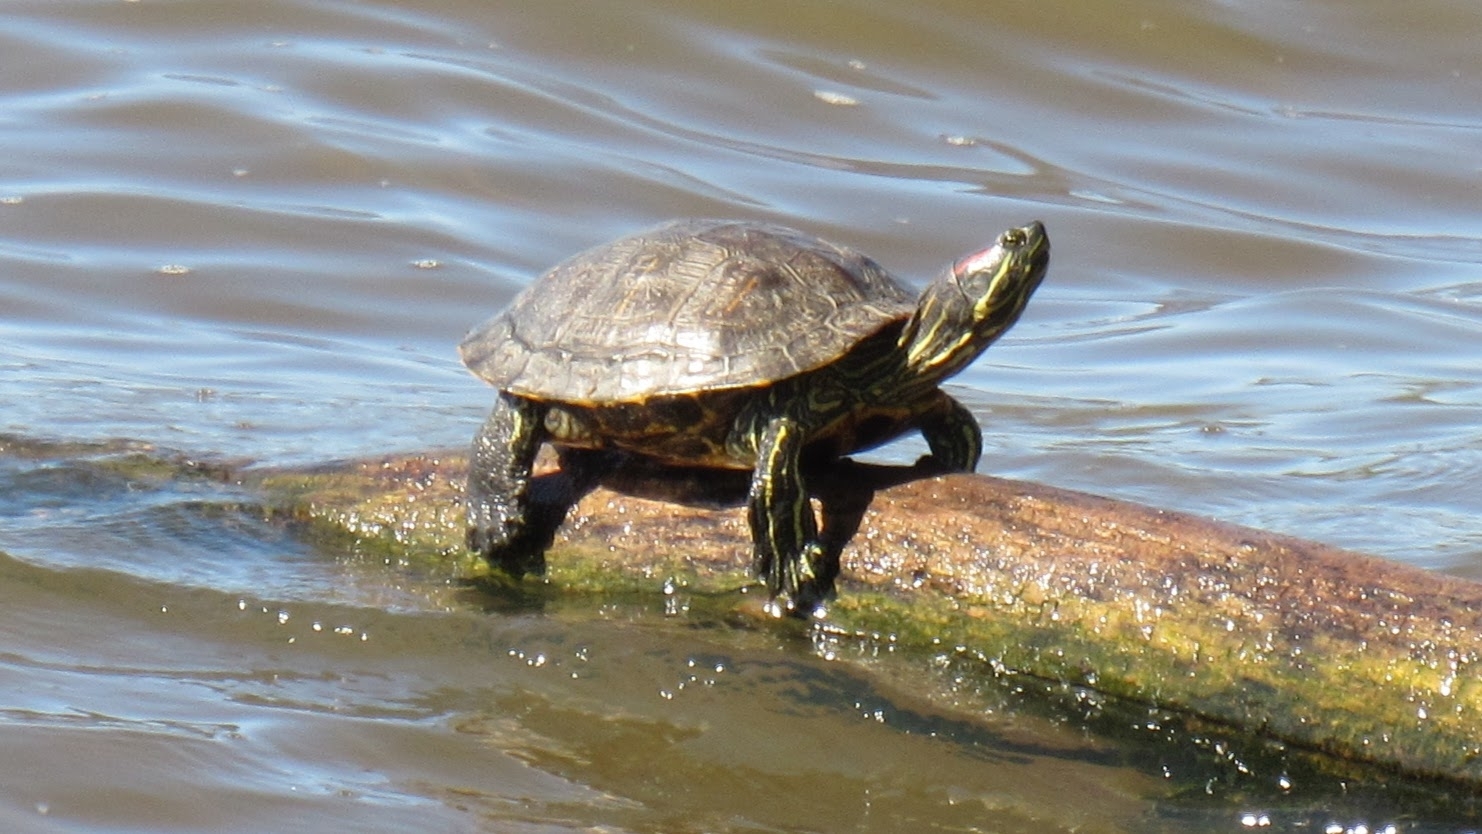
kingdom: Animalia
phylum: Chordata
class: Testudines
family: Emydidae
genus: Trachemys
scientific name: Trachemys scripta
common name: Slider
